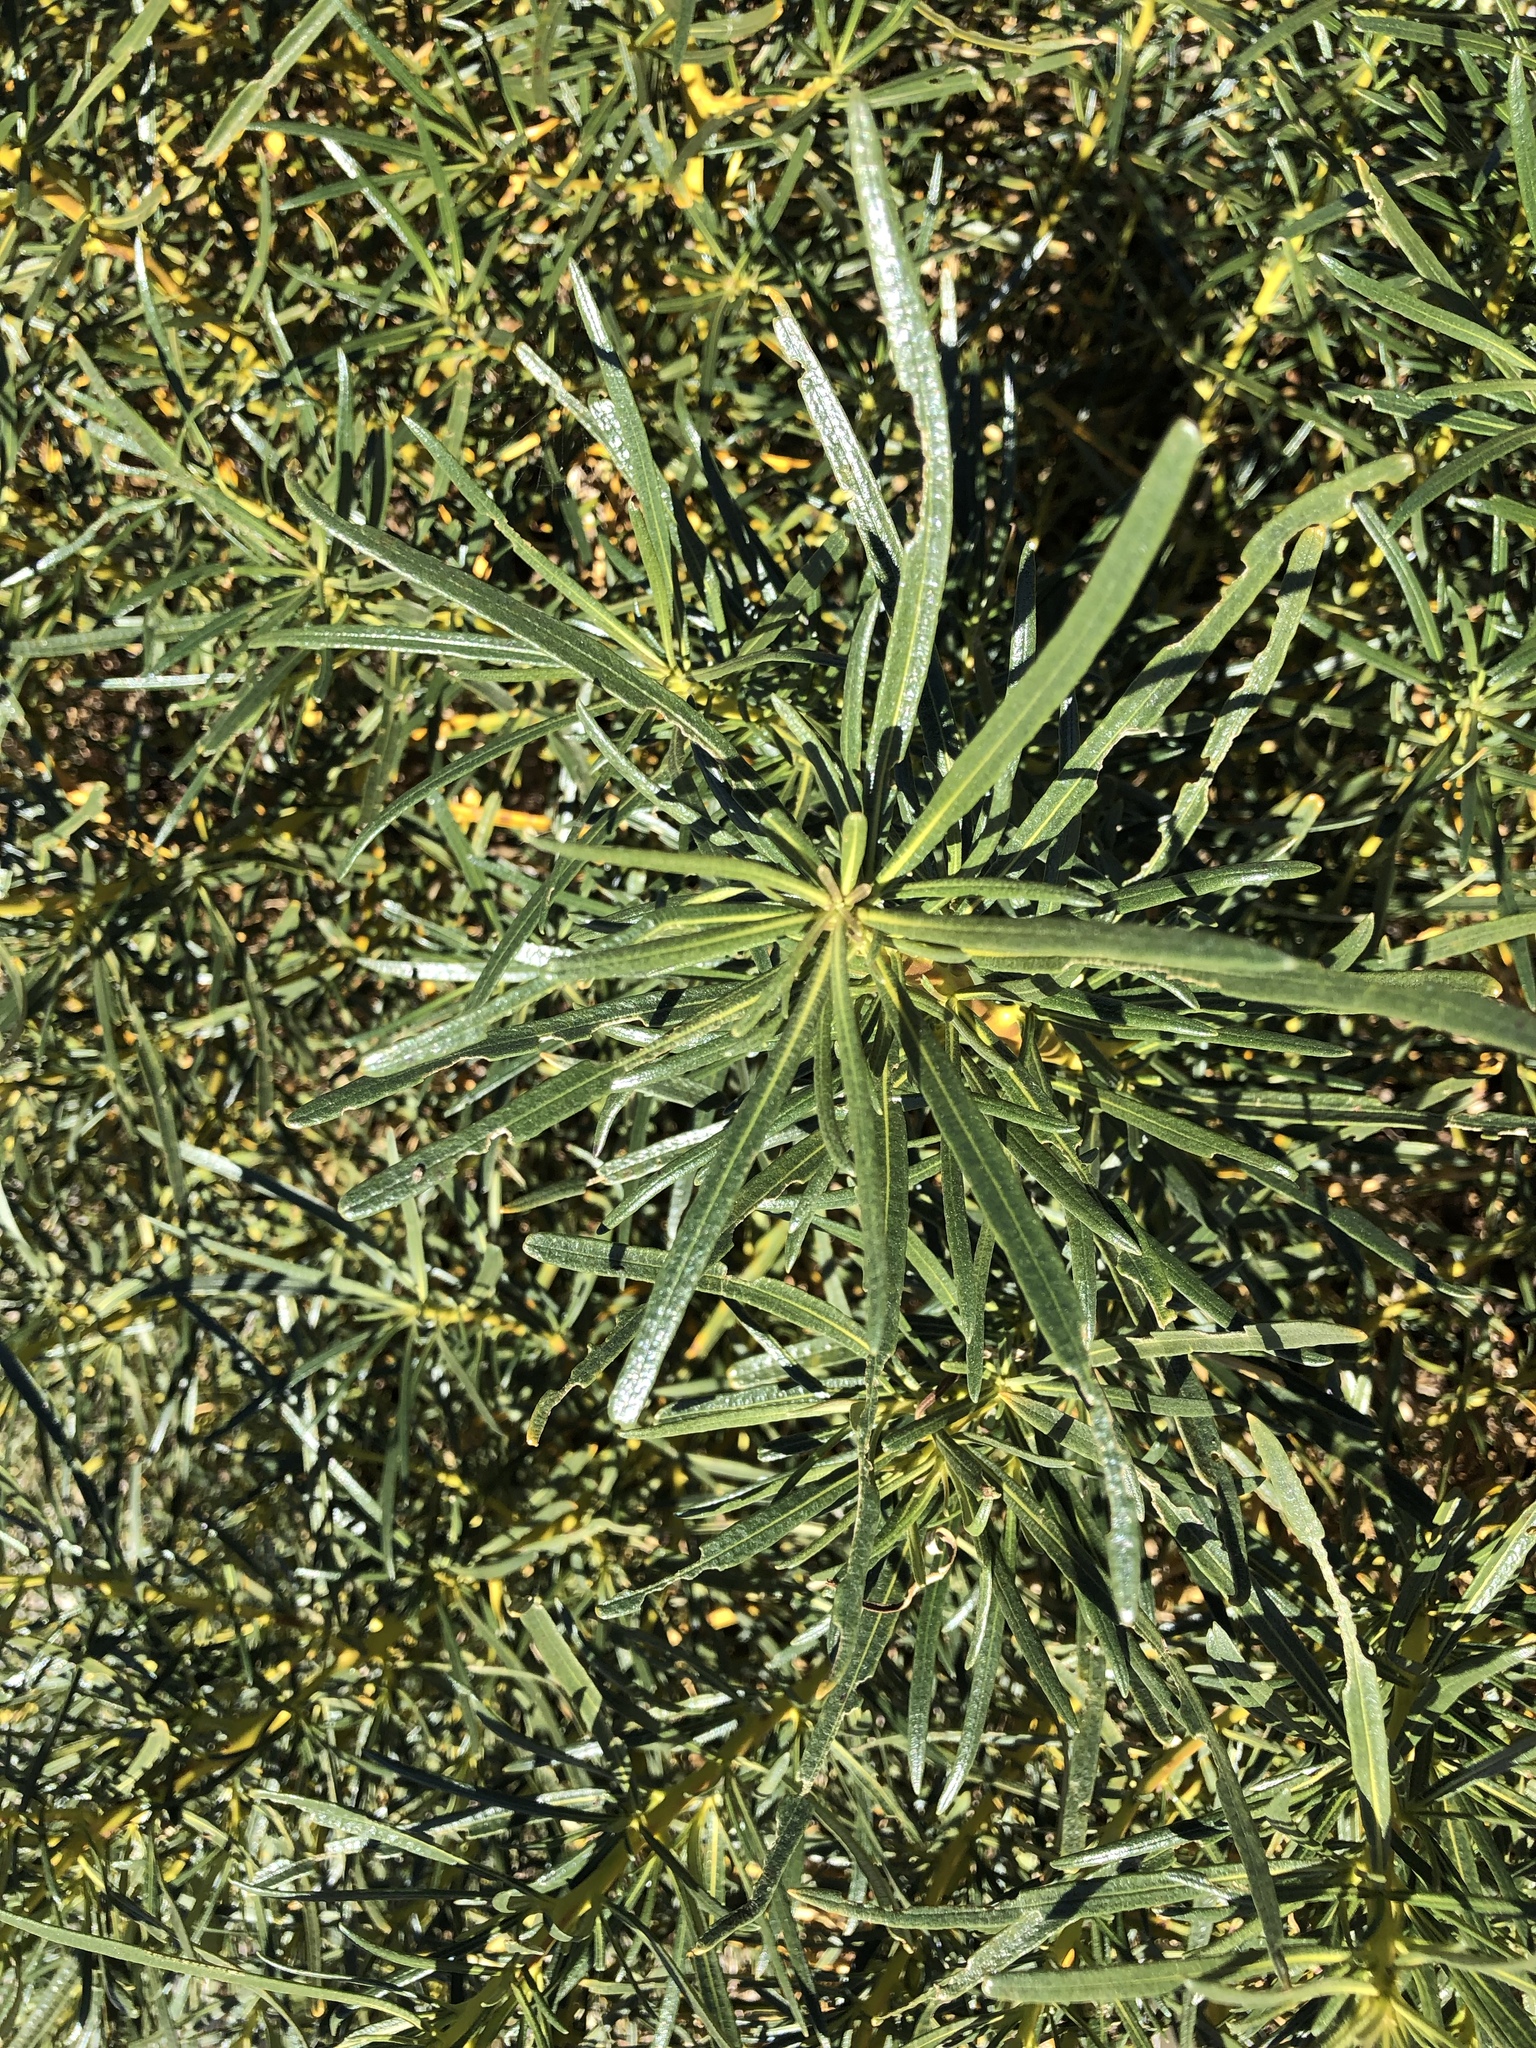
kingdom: Plantae
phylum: Tracheophyta
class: Magnoliopsida
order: Boraginales
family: Namaceae
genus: Eriodictyon
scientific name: Eriodictyon angustifolium
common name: Narrow-leaf yerba santa
